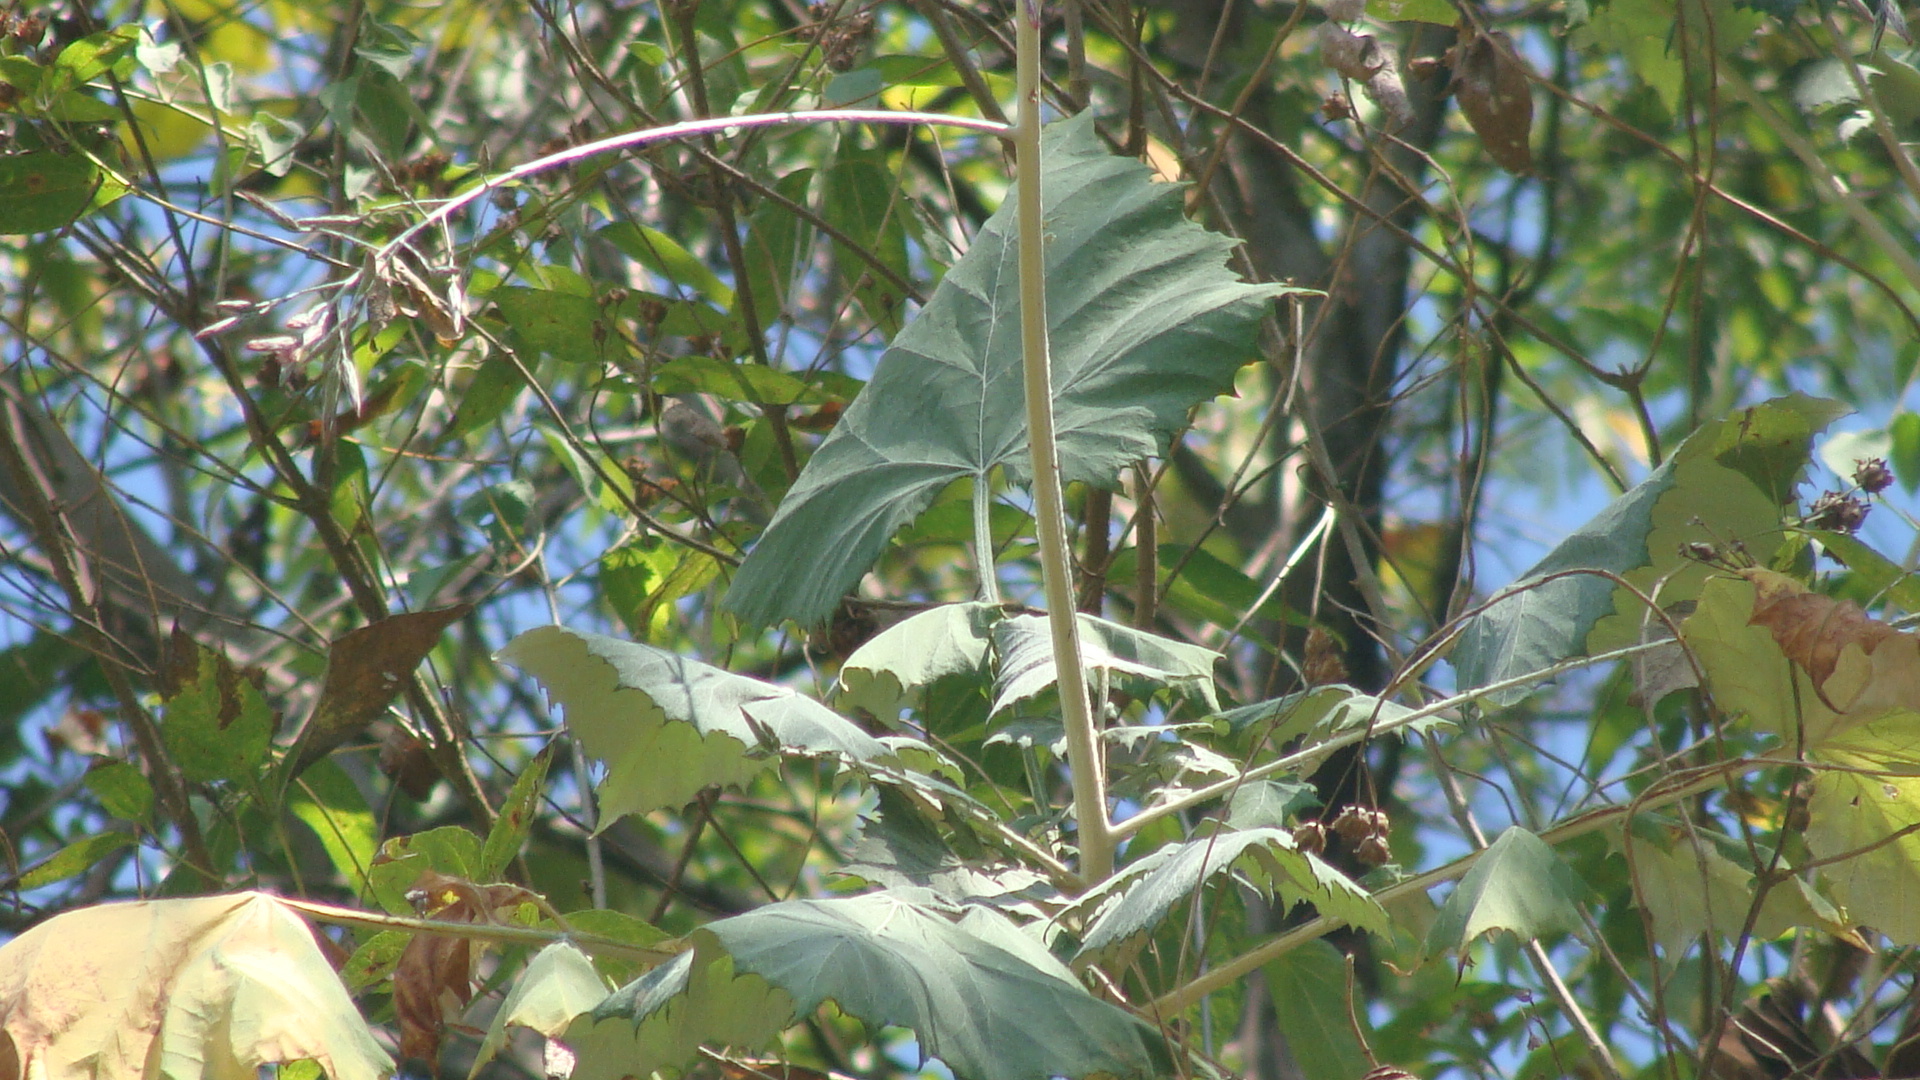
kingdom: Plantae
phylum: Tracheophyta
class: Magnoliopsida
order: Asterales
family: Asteraceae
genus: Onoseris
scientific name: Onoseris onoseroides
